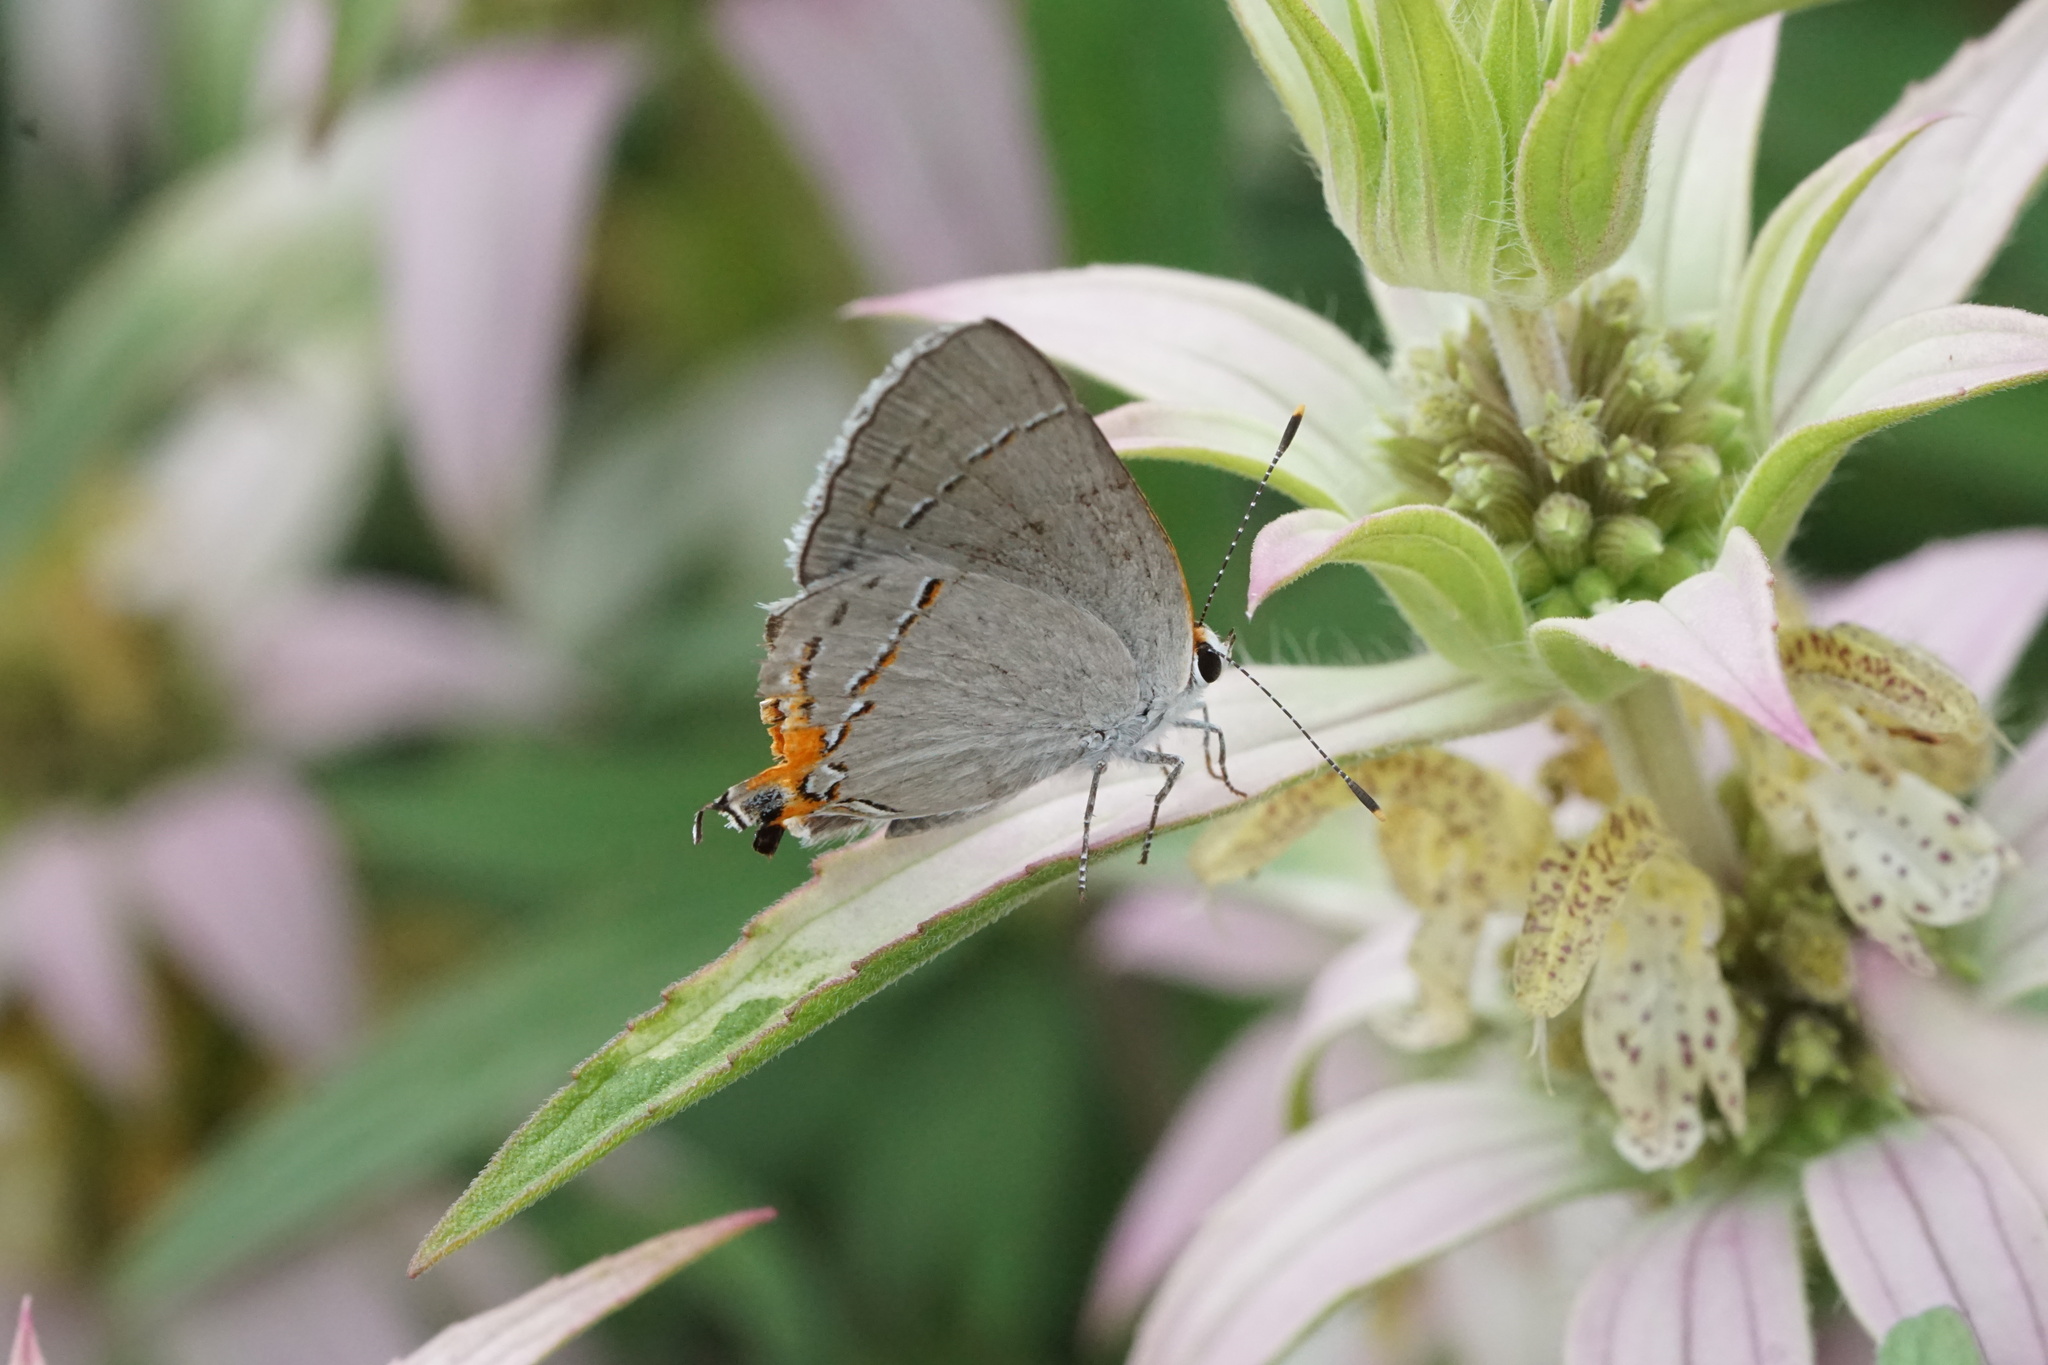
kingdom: Animalia
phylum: Arthropoda
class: Insecta
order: Lepidoptera
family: Lycaenidae
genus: Strymon
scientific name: Strymon melinus
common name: Gray hairstreak
